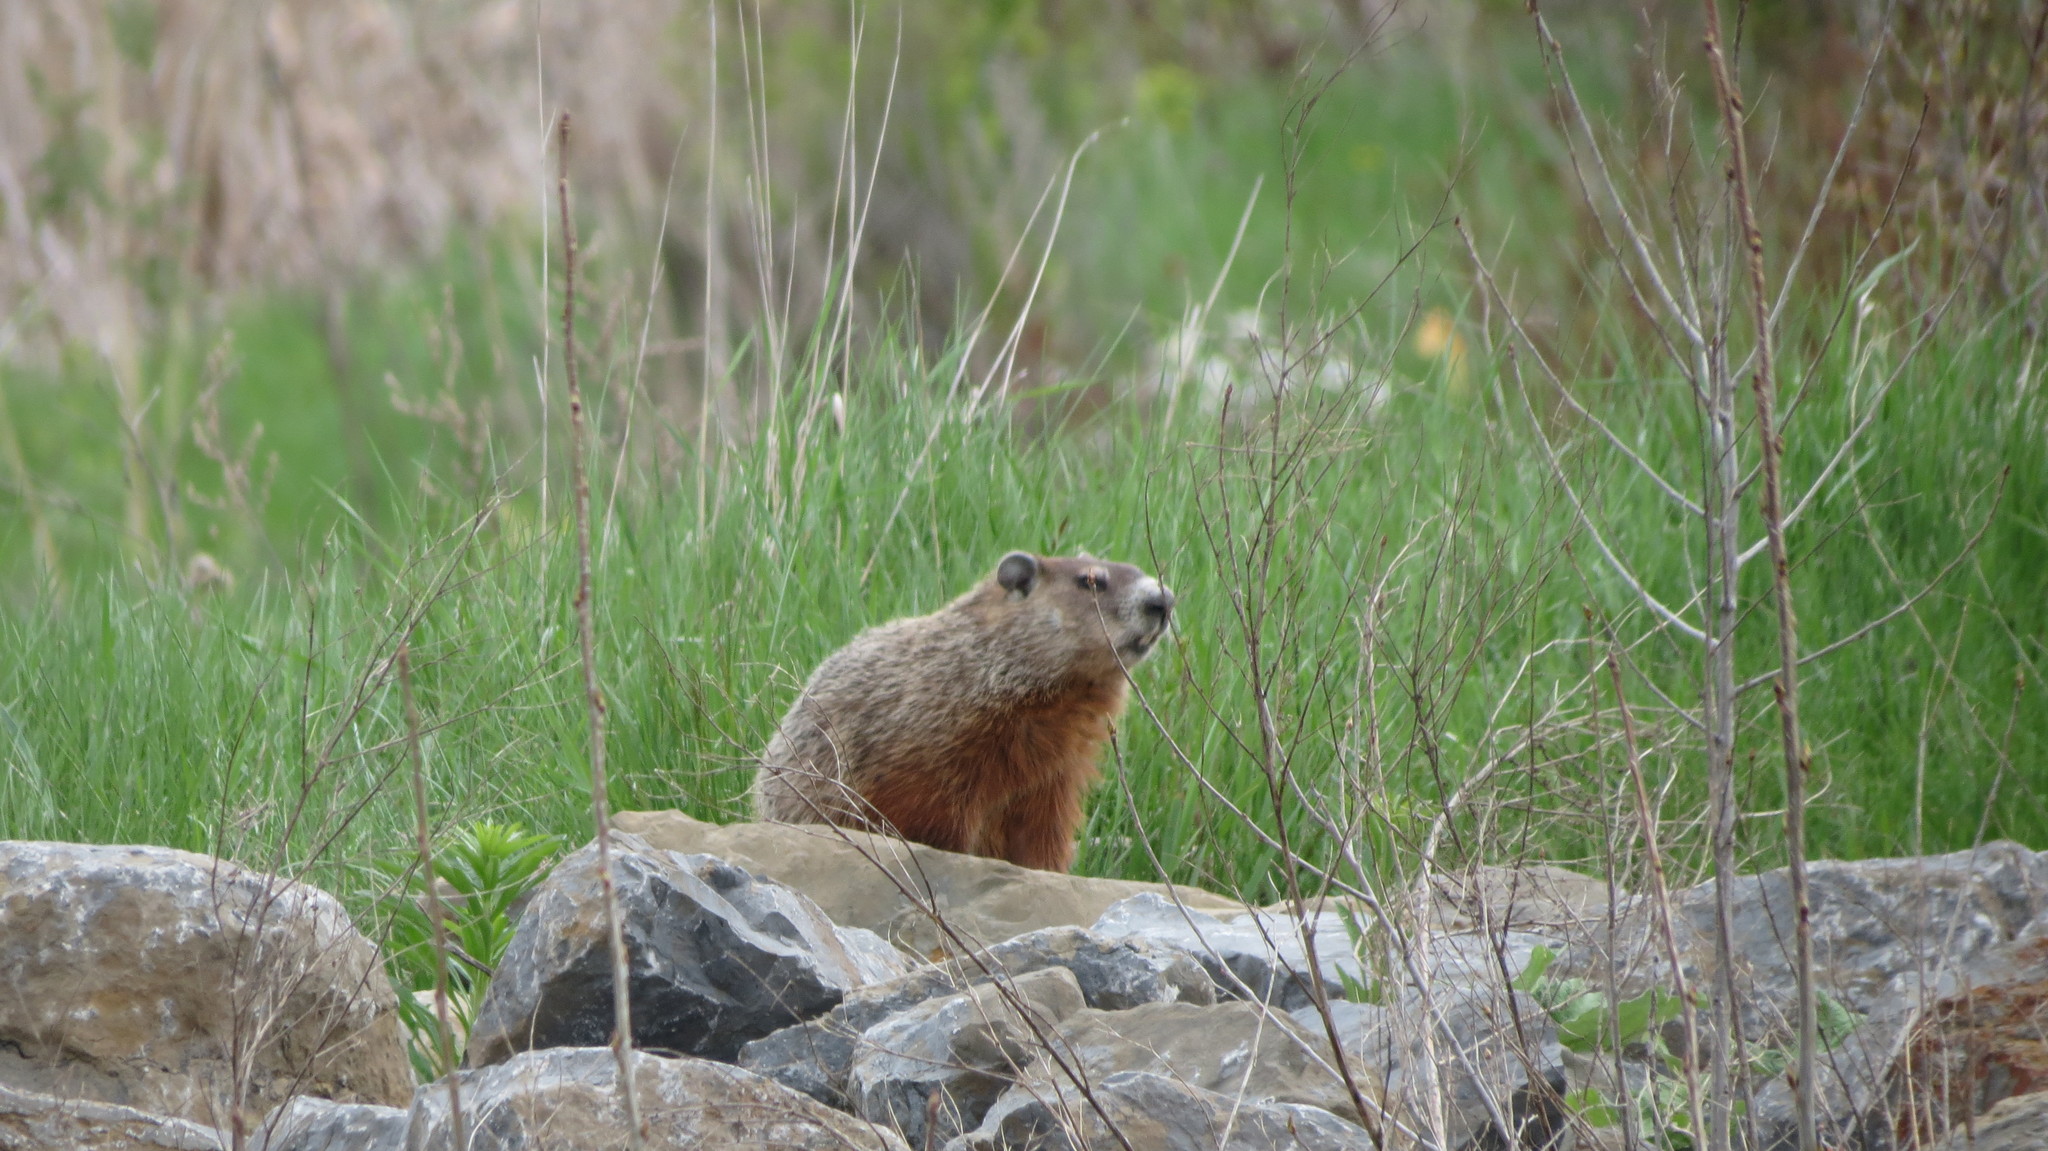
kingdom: Animalia
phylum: Chordata
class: Mammalia
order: Rodentia
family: Sciuridae
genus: Marmota
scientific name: Marmota monax
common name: Groundhog
